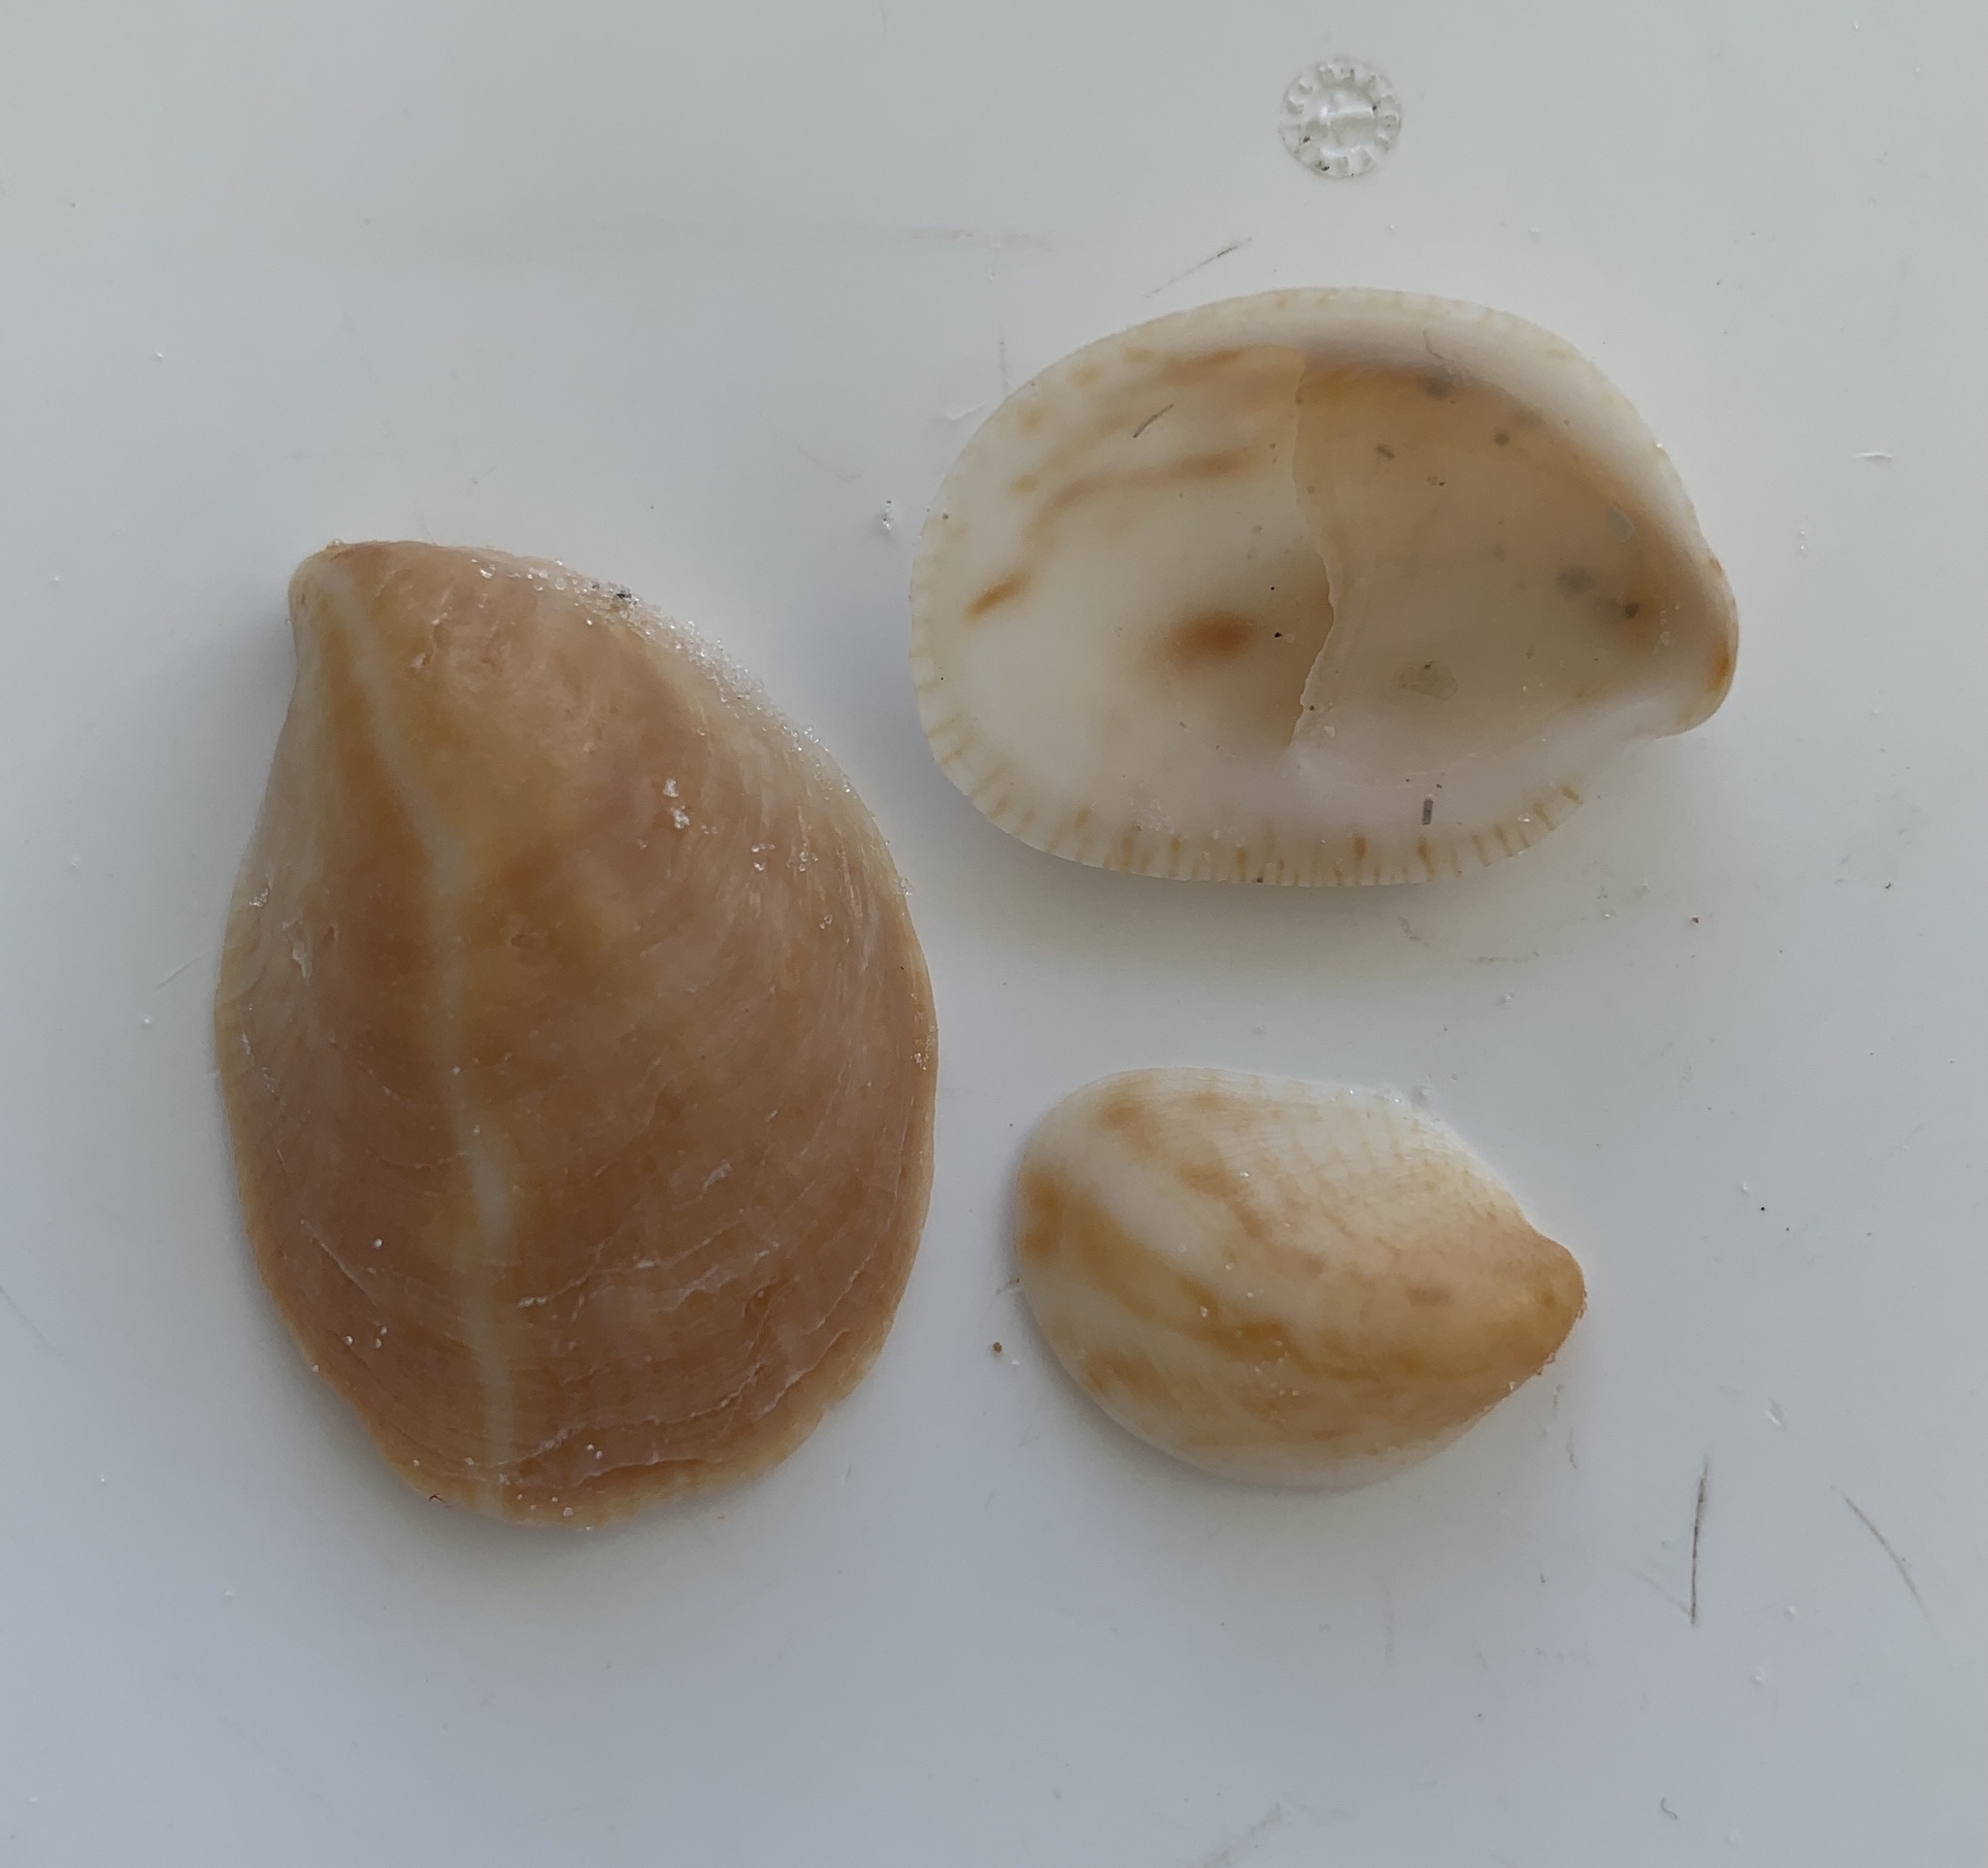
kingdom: Animalia
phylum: Mollusca
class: Gastropoda
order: Littorinimorpha
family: Calyptraeidae
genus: Crepidula
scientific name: Crepidula fornicata
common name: Slipper limpet
